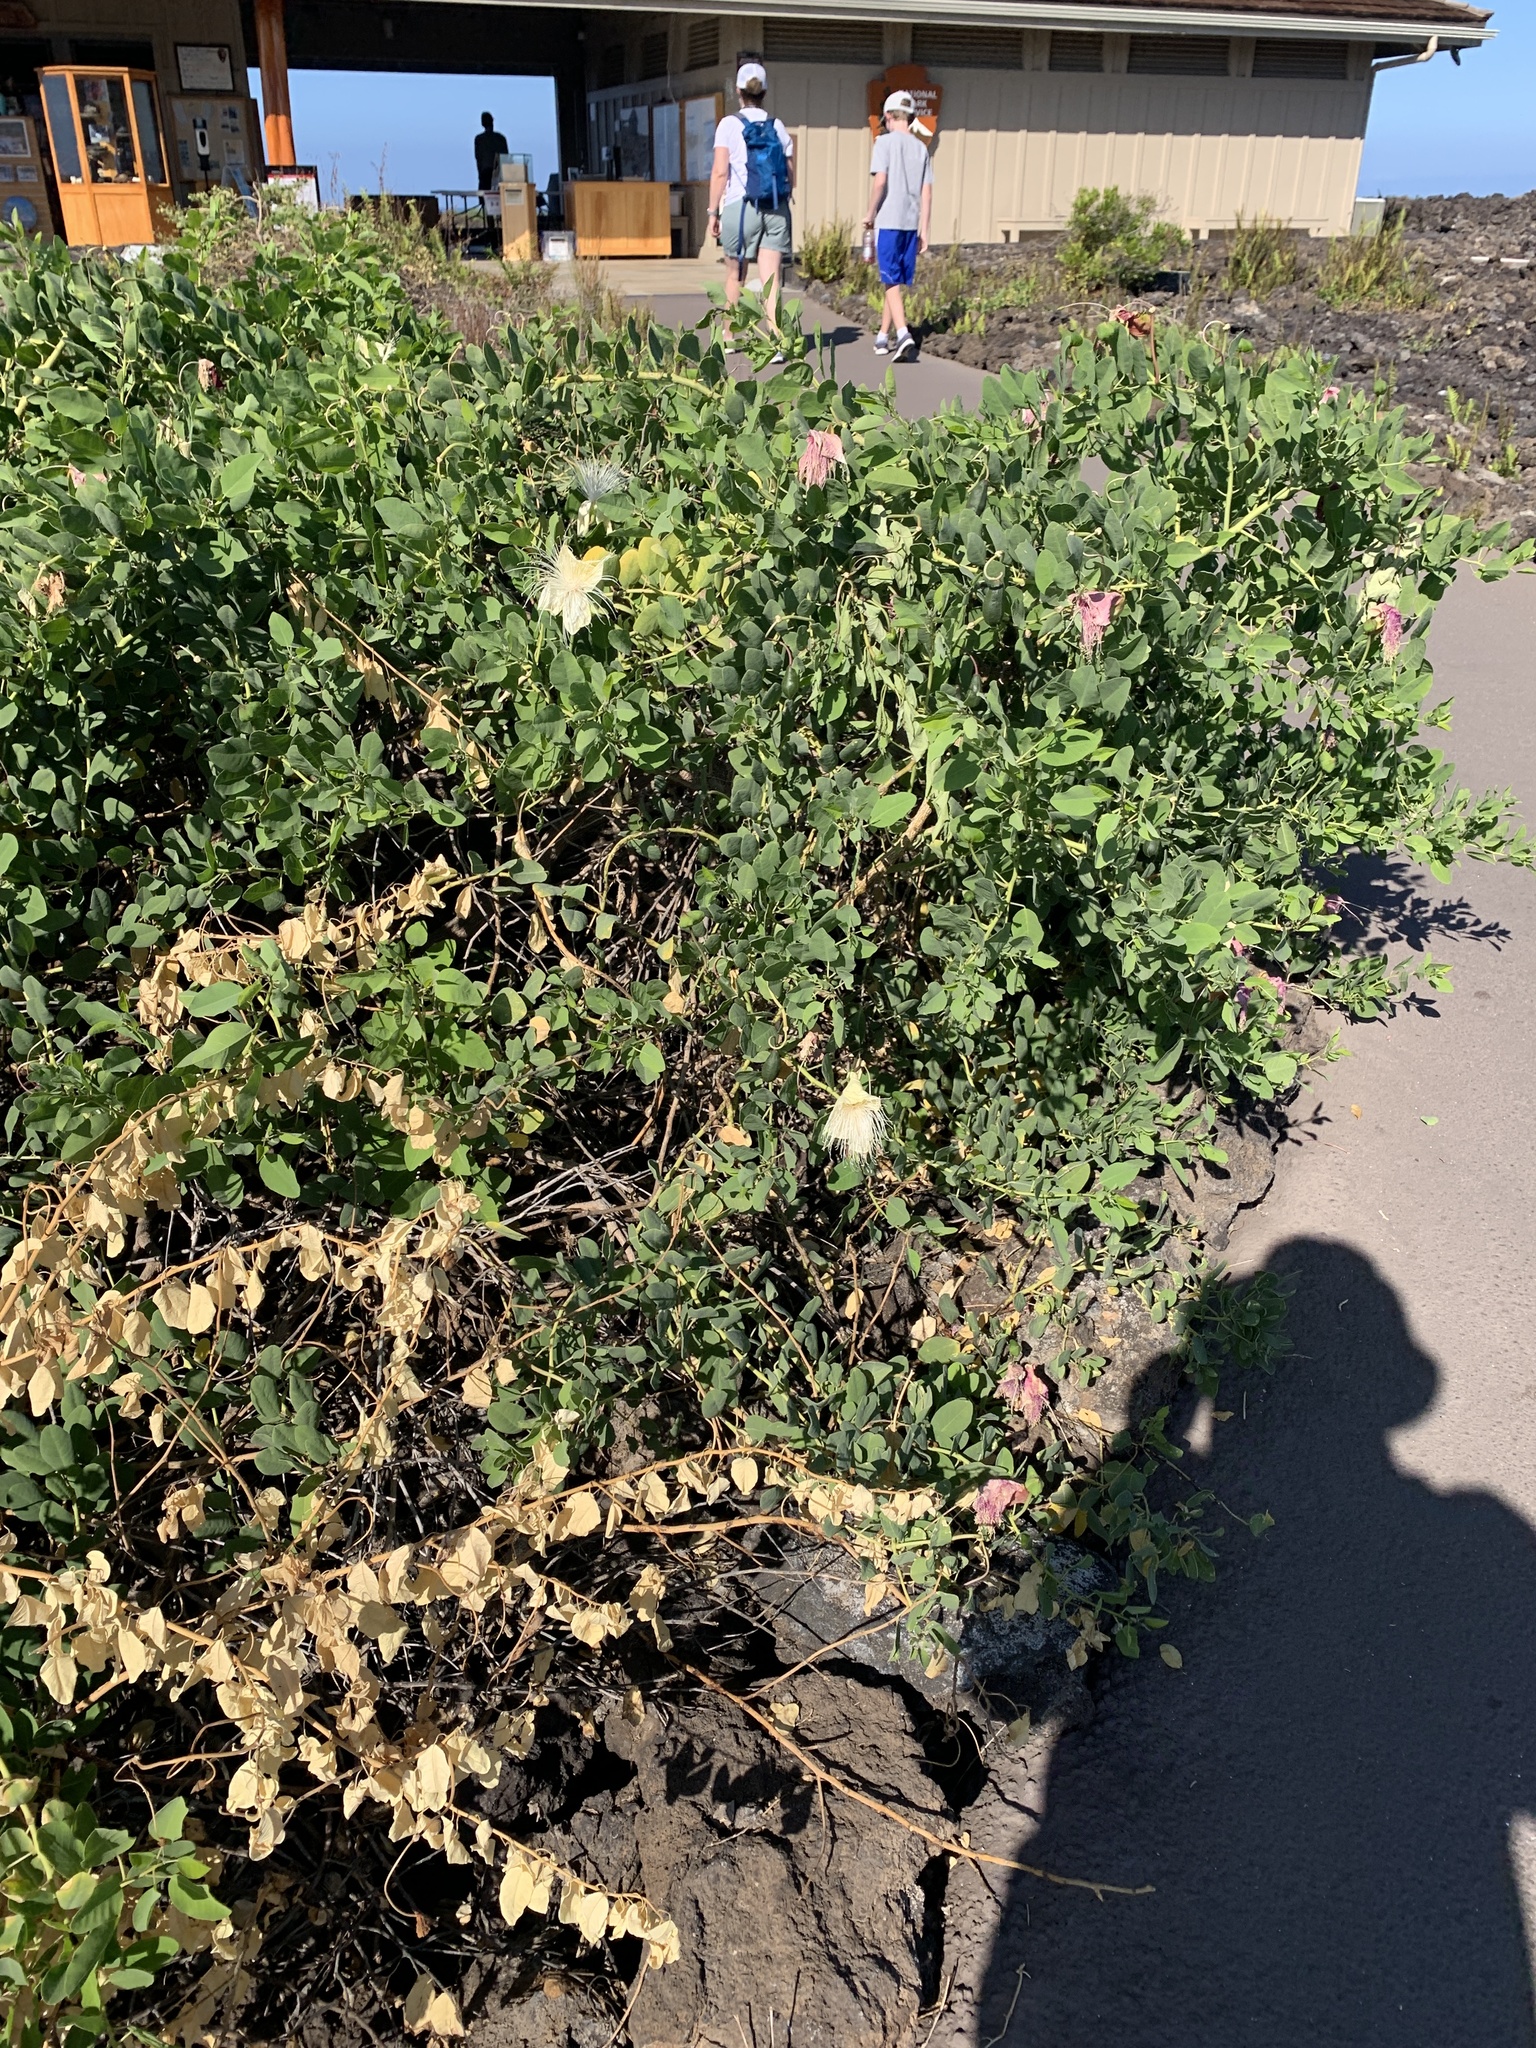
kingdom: Plantae
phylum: Tracheophyta
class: Magnoliopsida
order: Brassicales
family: Capparaceae
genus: Capparis
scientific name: Capparis spinosa
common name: Caper
